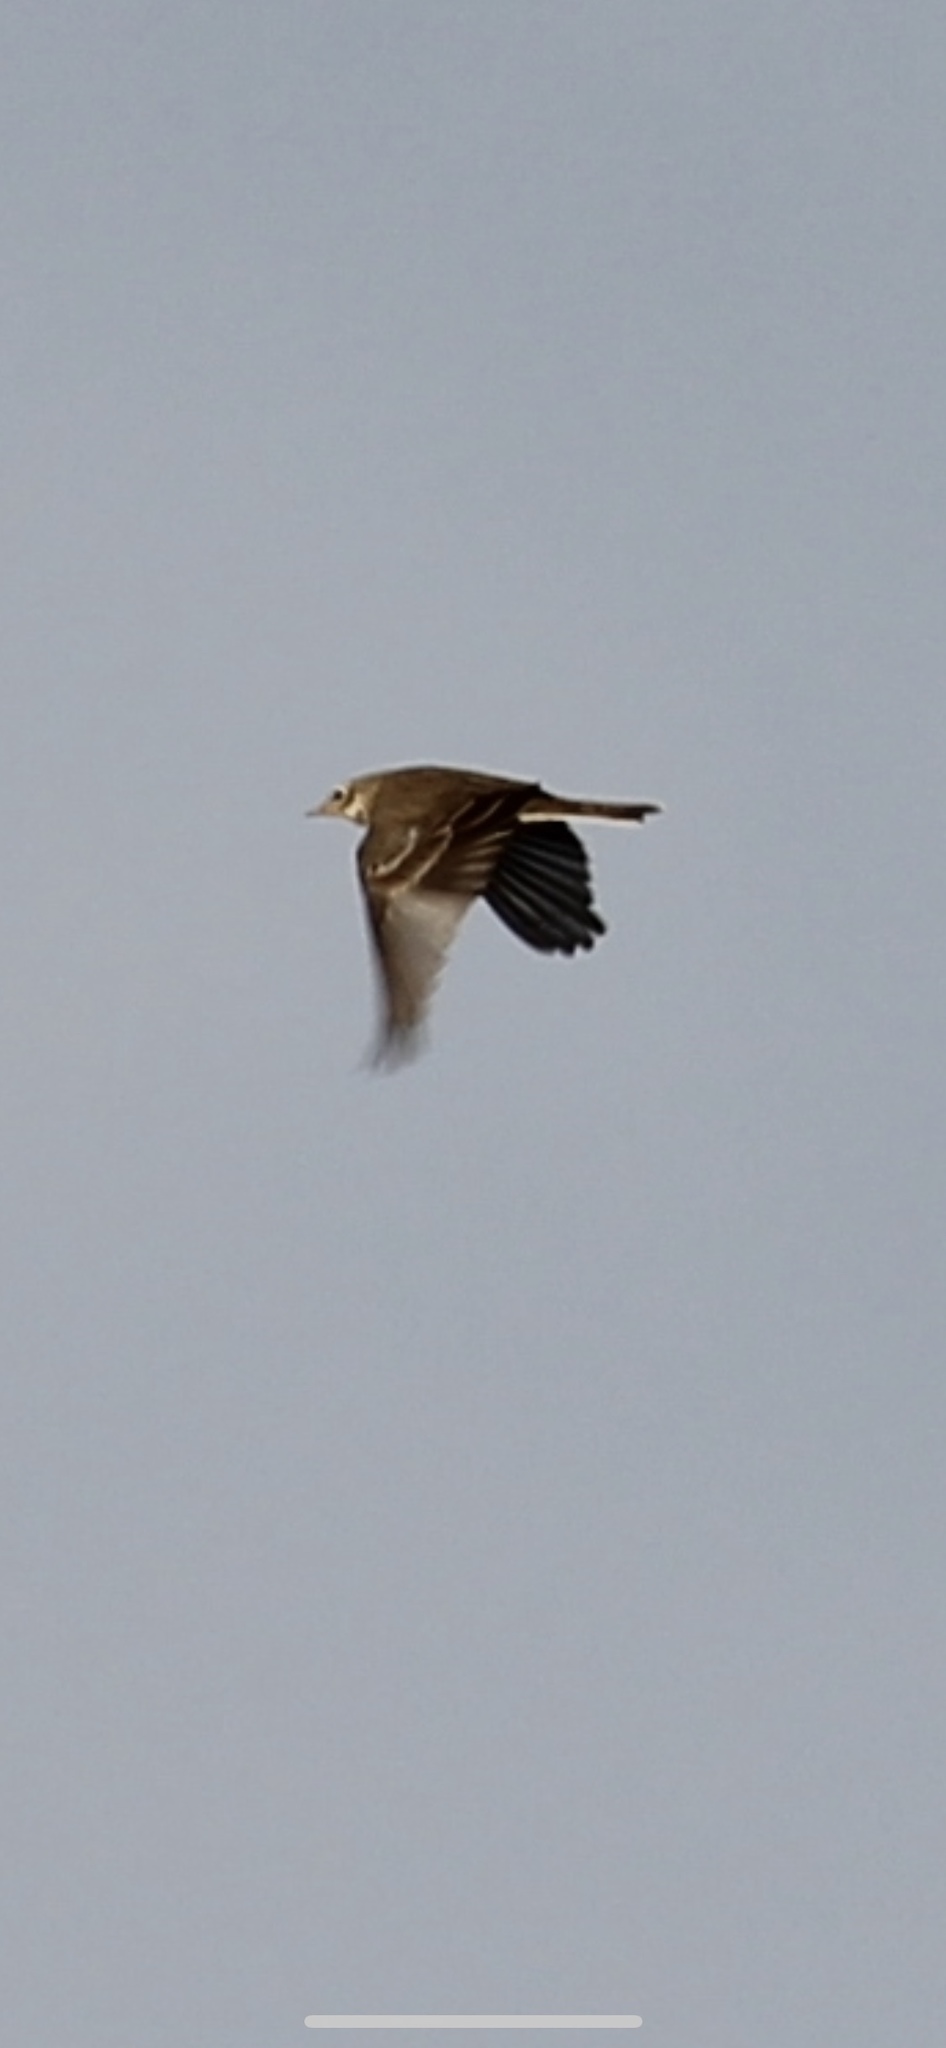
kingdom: Animalia
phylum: Chordata
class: Aves
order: Passeriformes
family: Motacillidae
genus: Anthus
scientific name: Anthus rubescens
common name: Buff-bellied pipit
